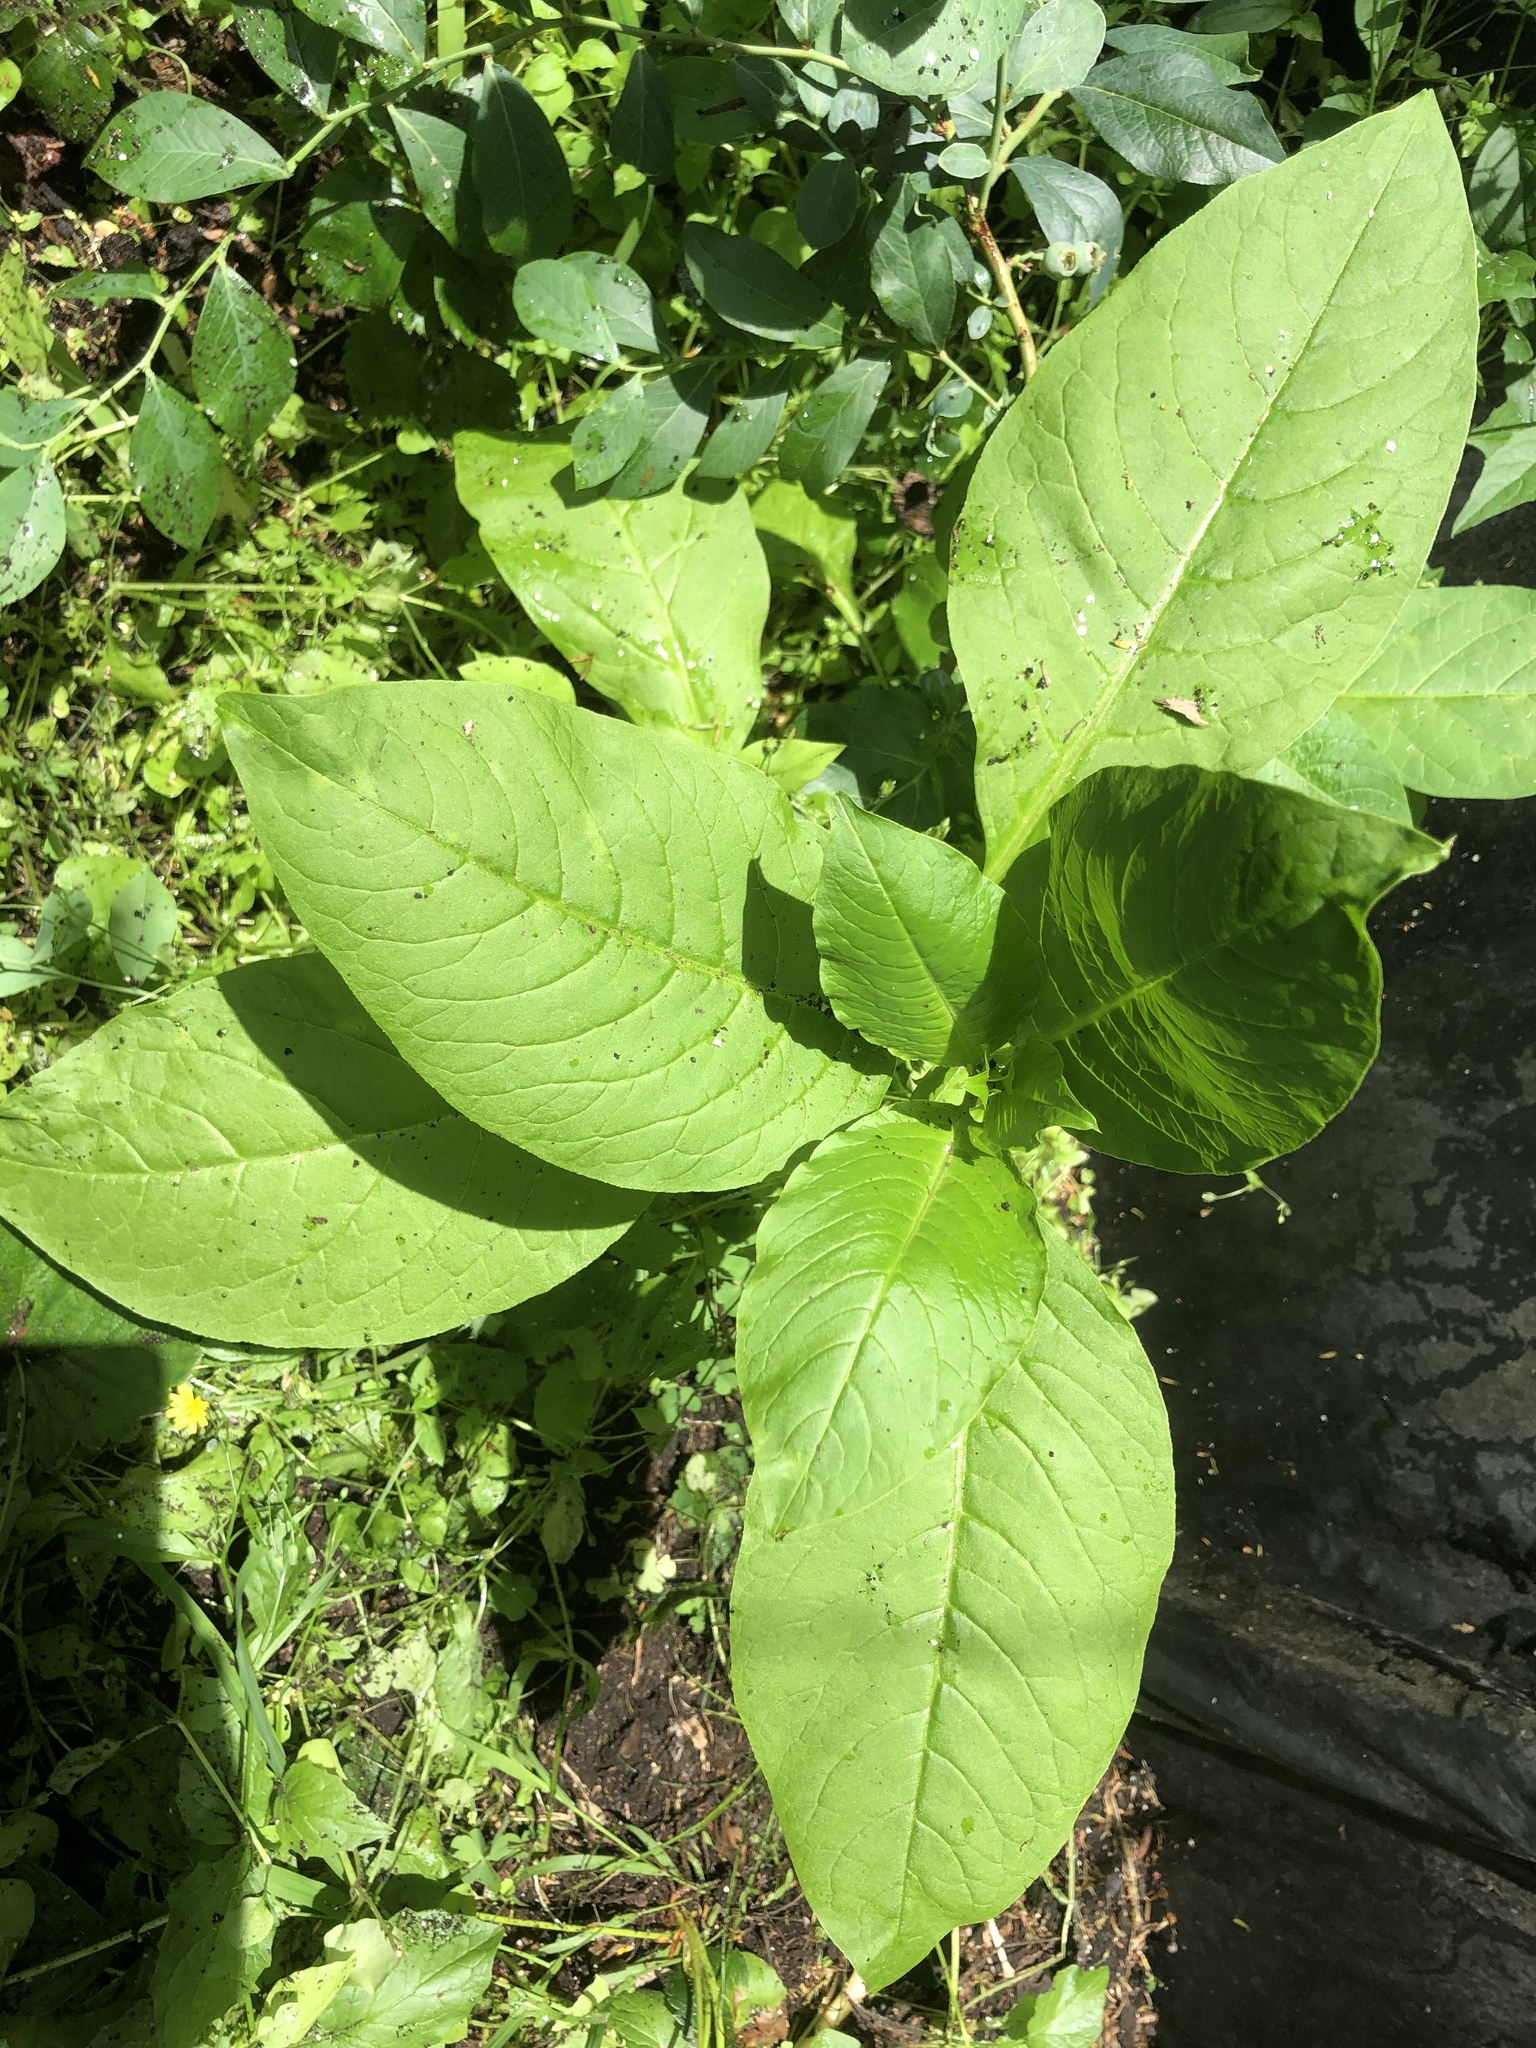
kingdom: Plantae
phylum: Tracheophyta
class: Magnoliopsida
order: Caryophyllales
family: Phytolaccaceae
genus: Phytolacca
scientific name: Phytolacca americana
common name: American pokeweed
